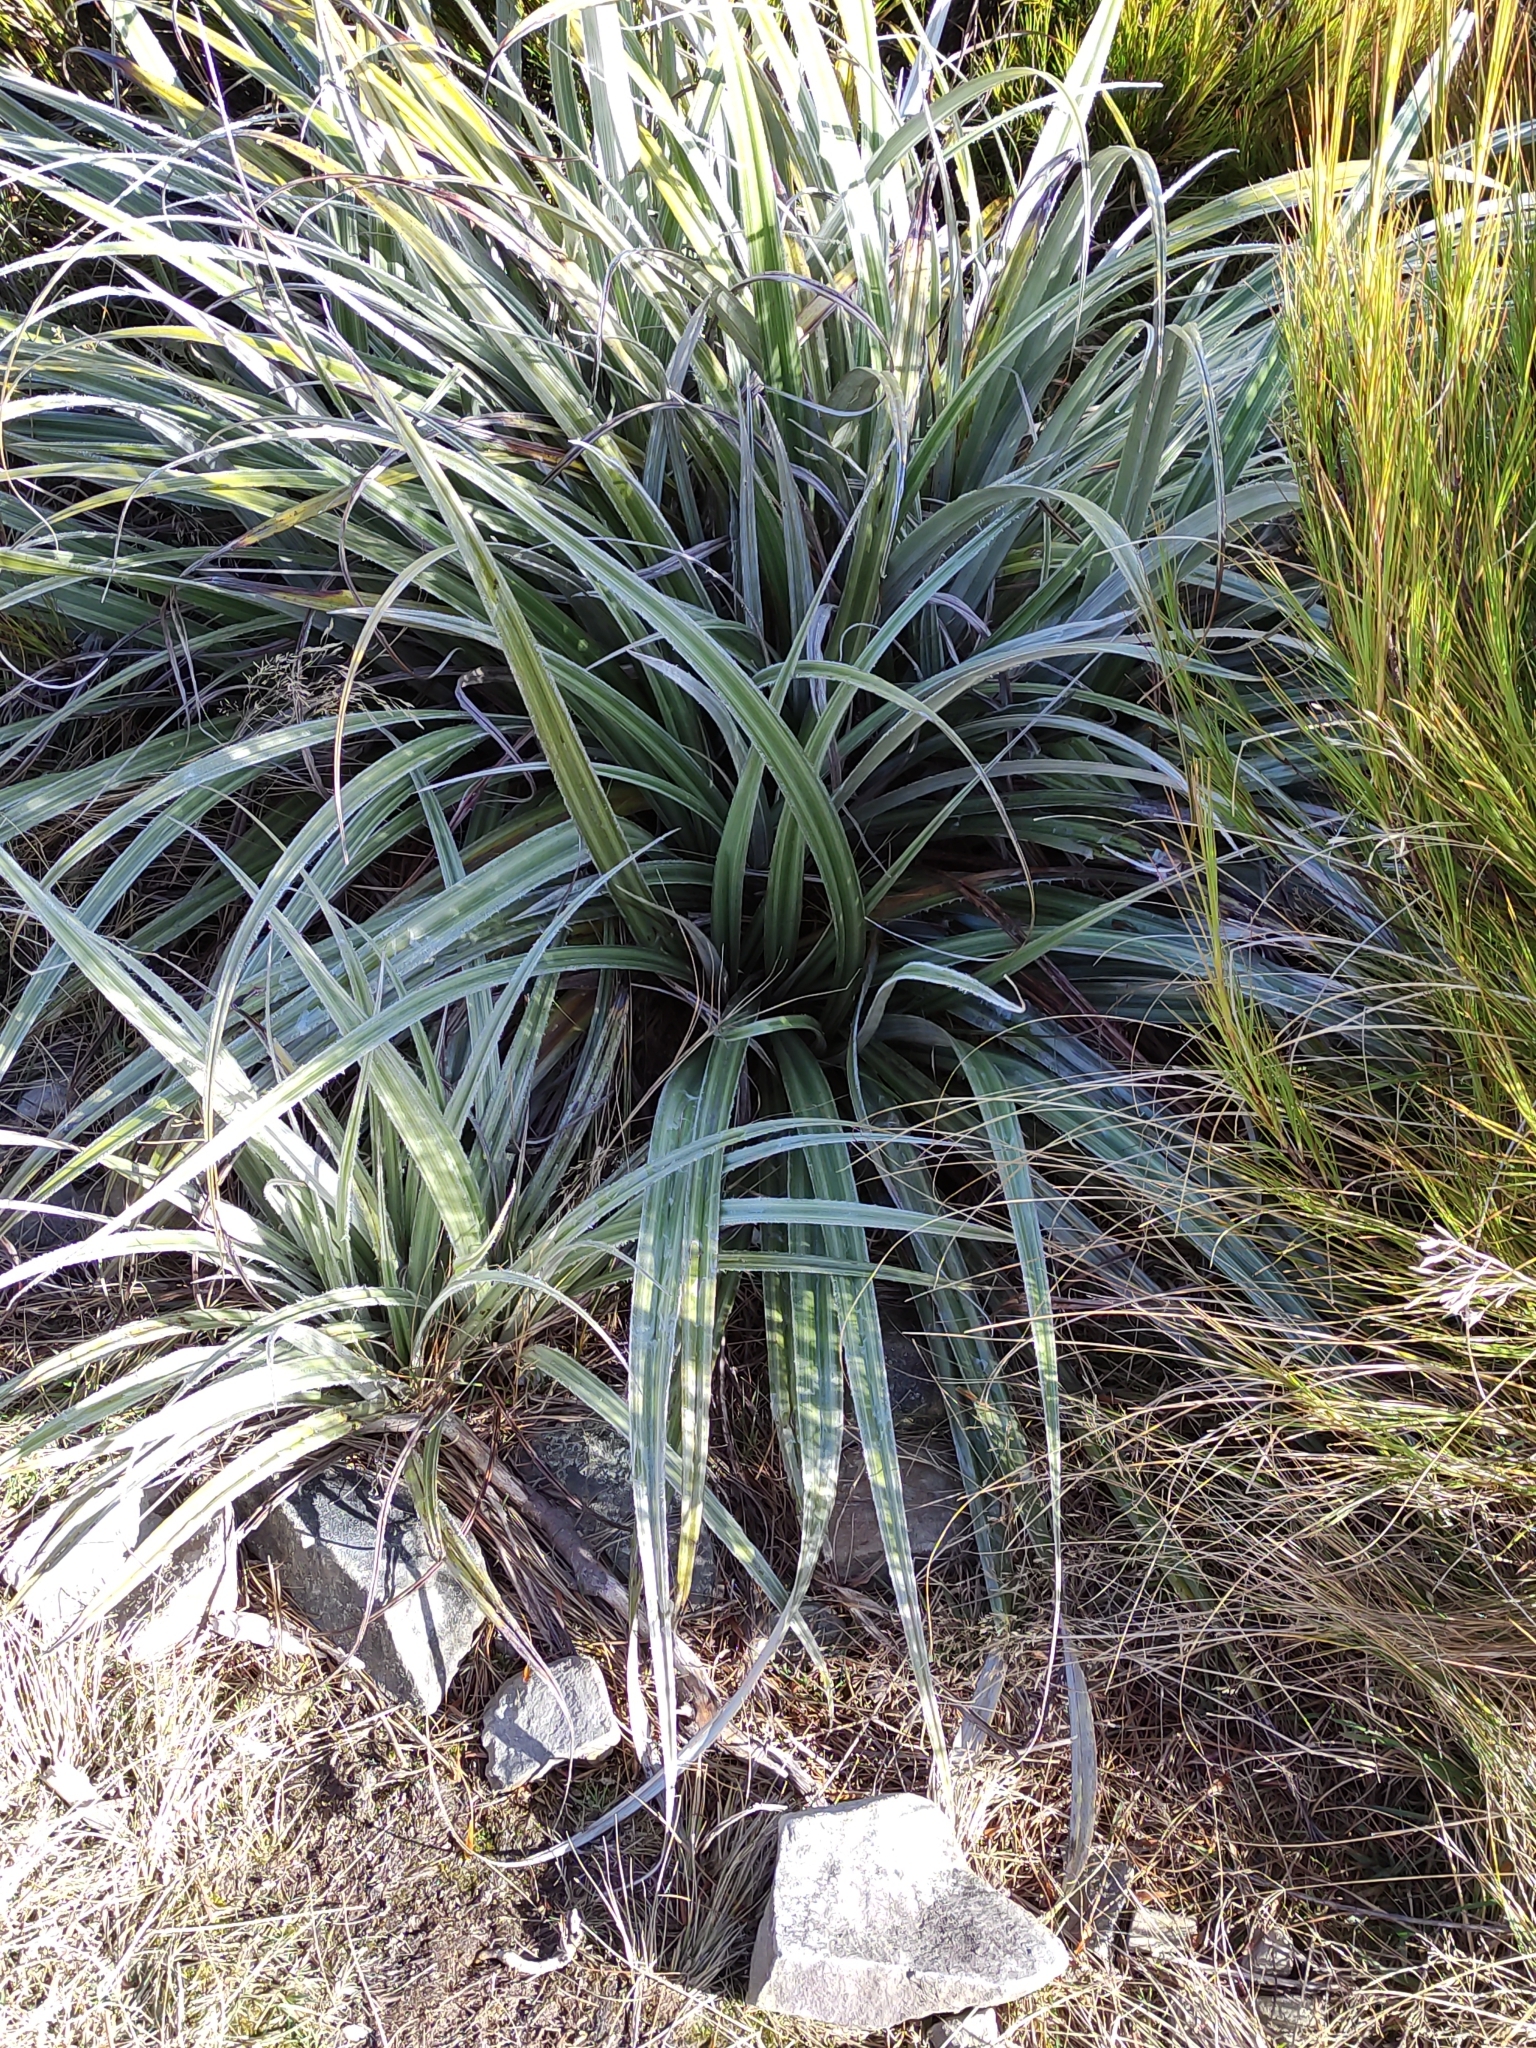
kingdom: Plantae
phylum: Tracheophyta
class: Liliopsida
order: Asparagales
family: Asteliaceae
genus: Astelia
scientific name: Astelia nervosa
